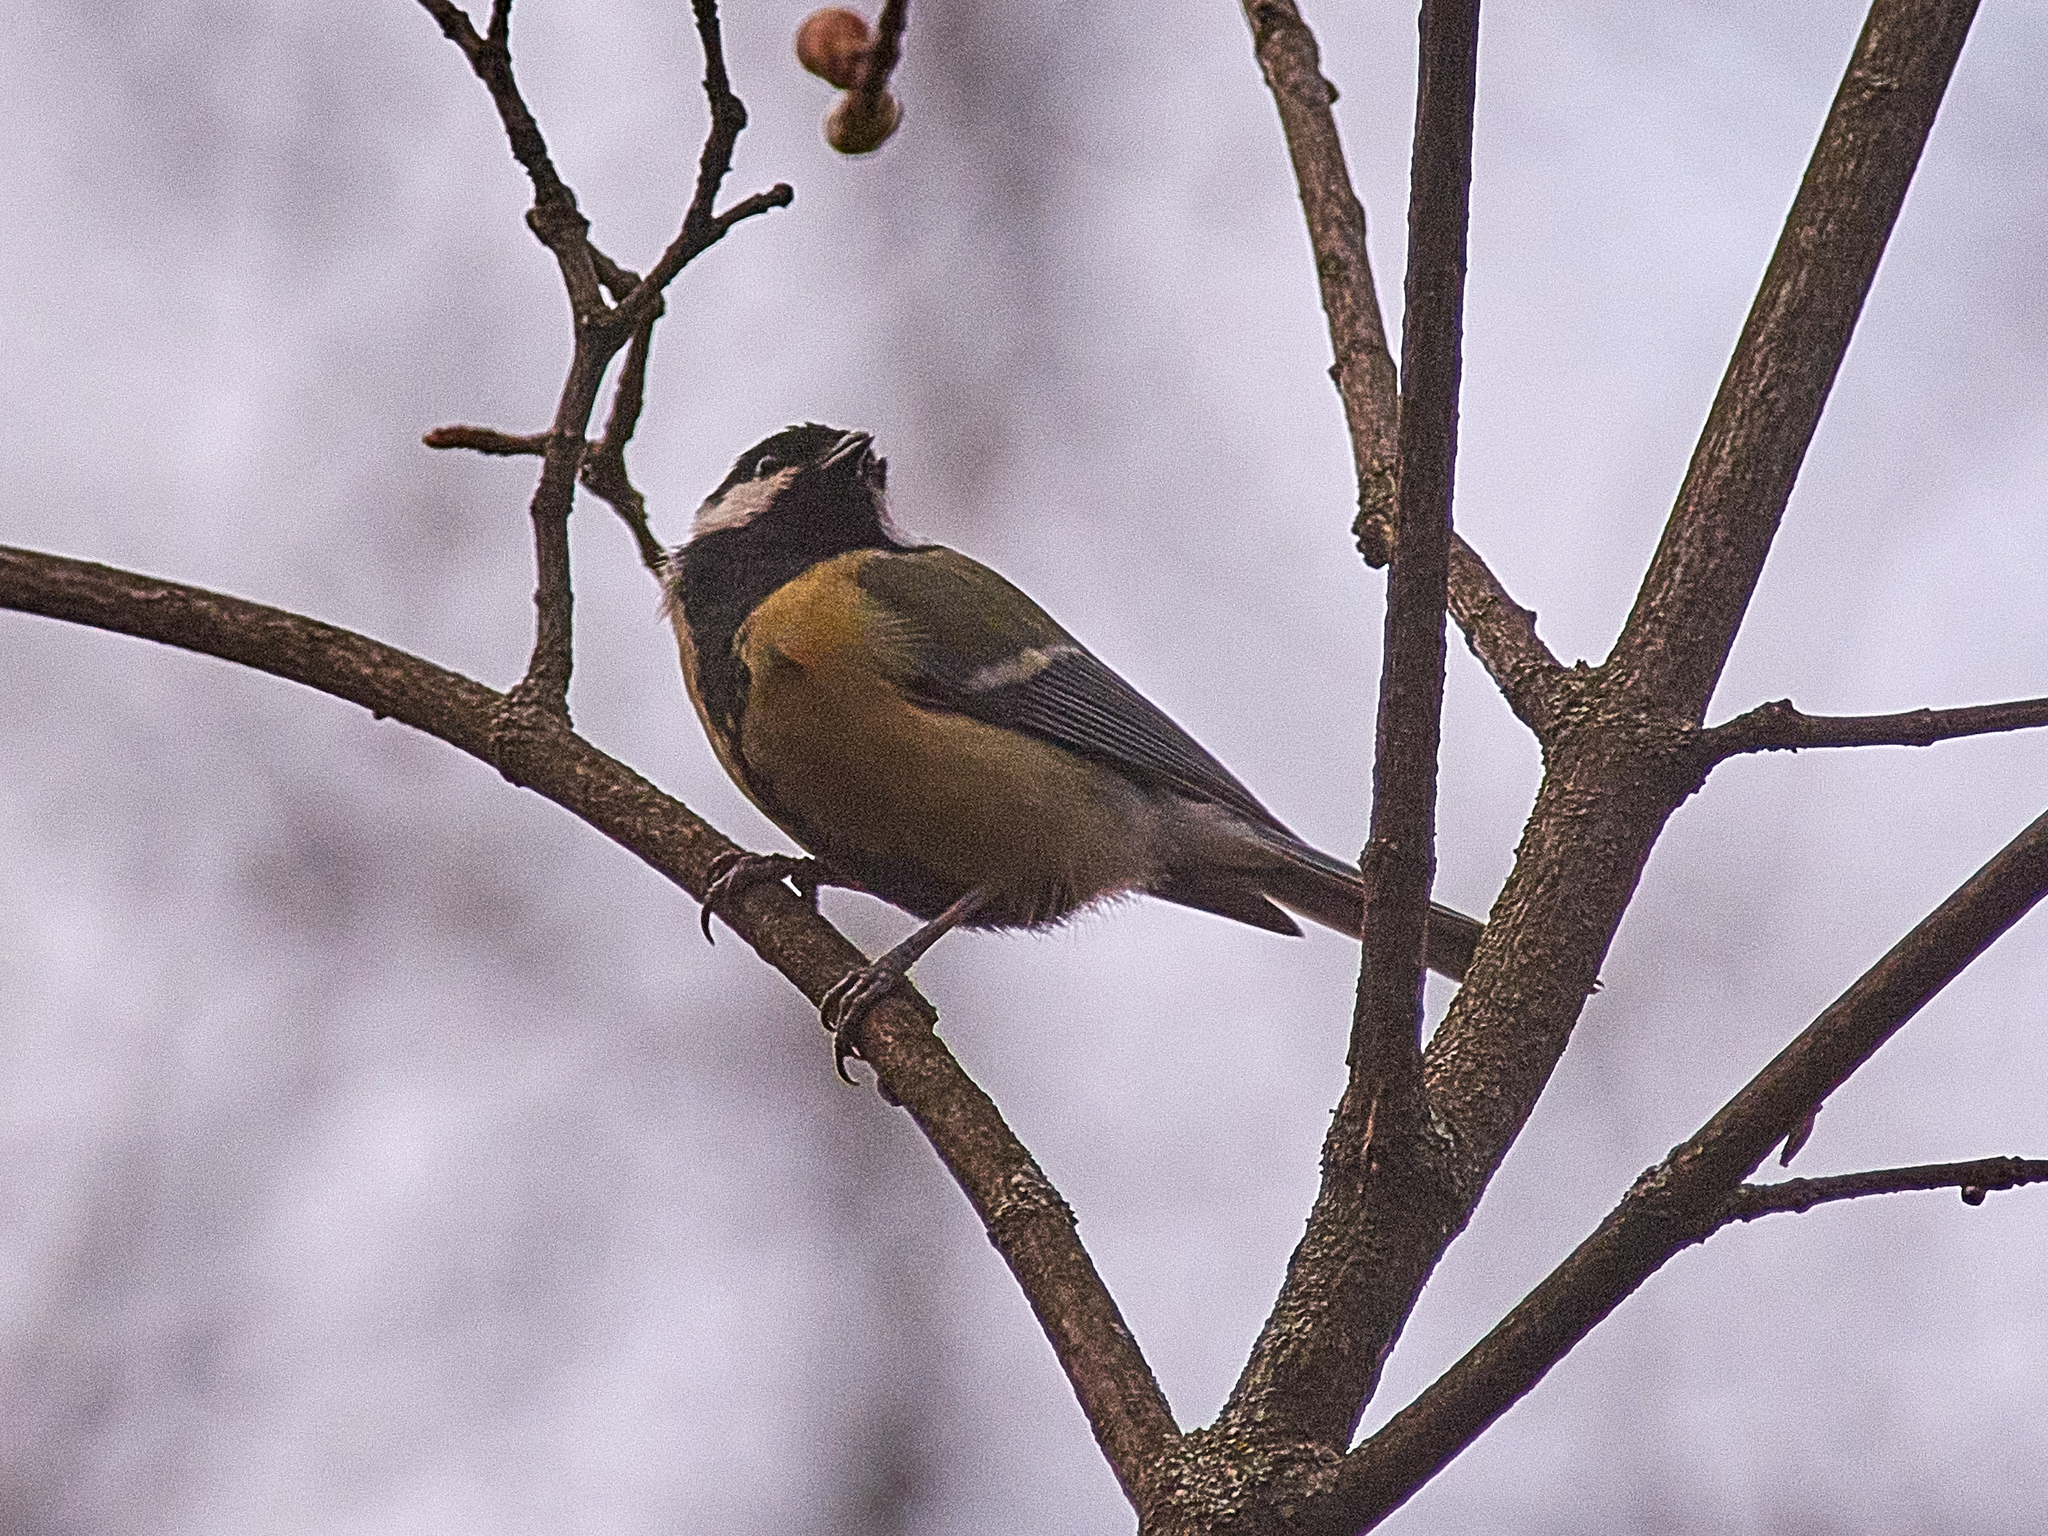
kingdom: Animalia
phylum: Chordata
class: Aves
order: Passeriformes
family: Paridae
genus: Parus
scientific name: Parus major
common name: Great tit
